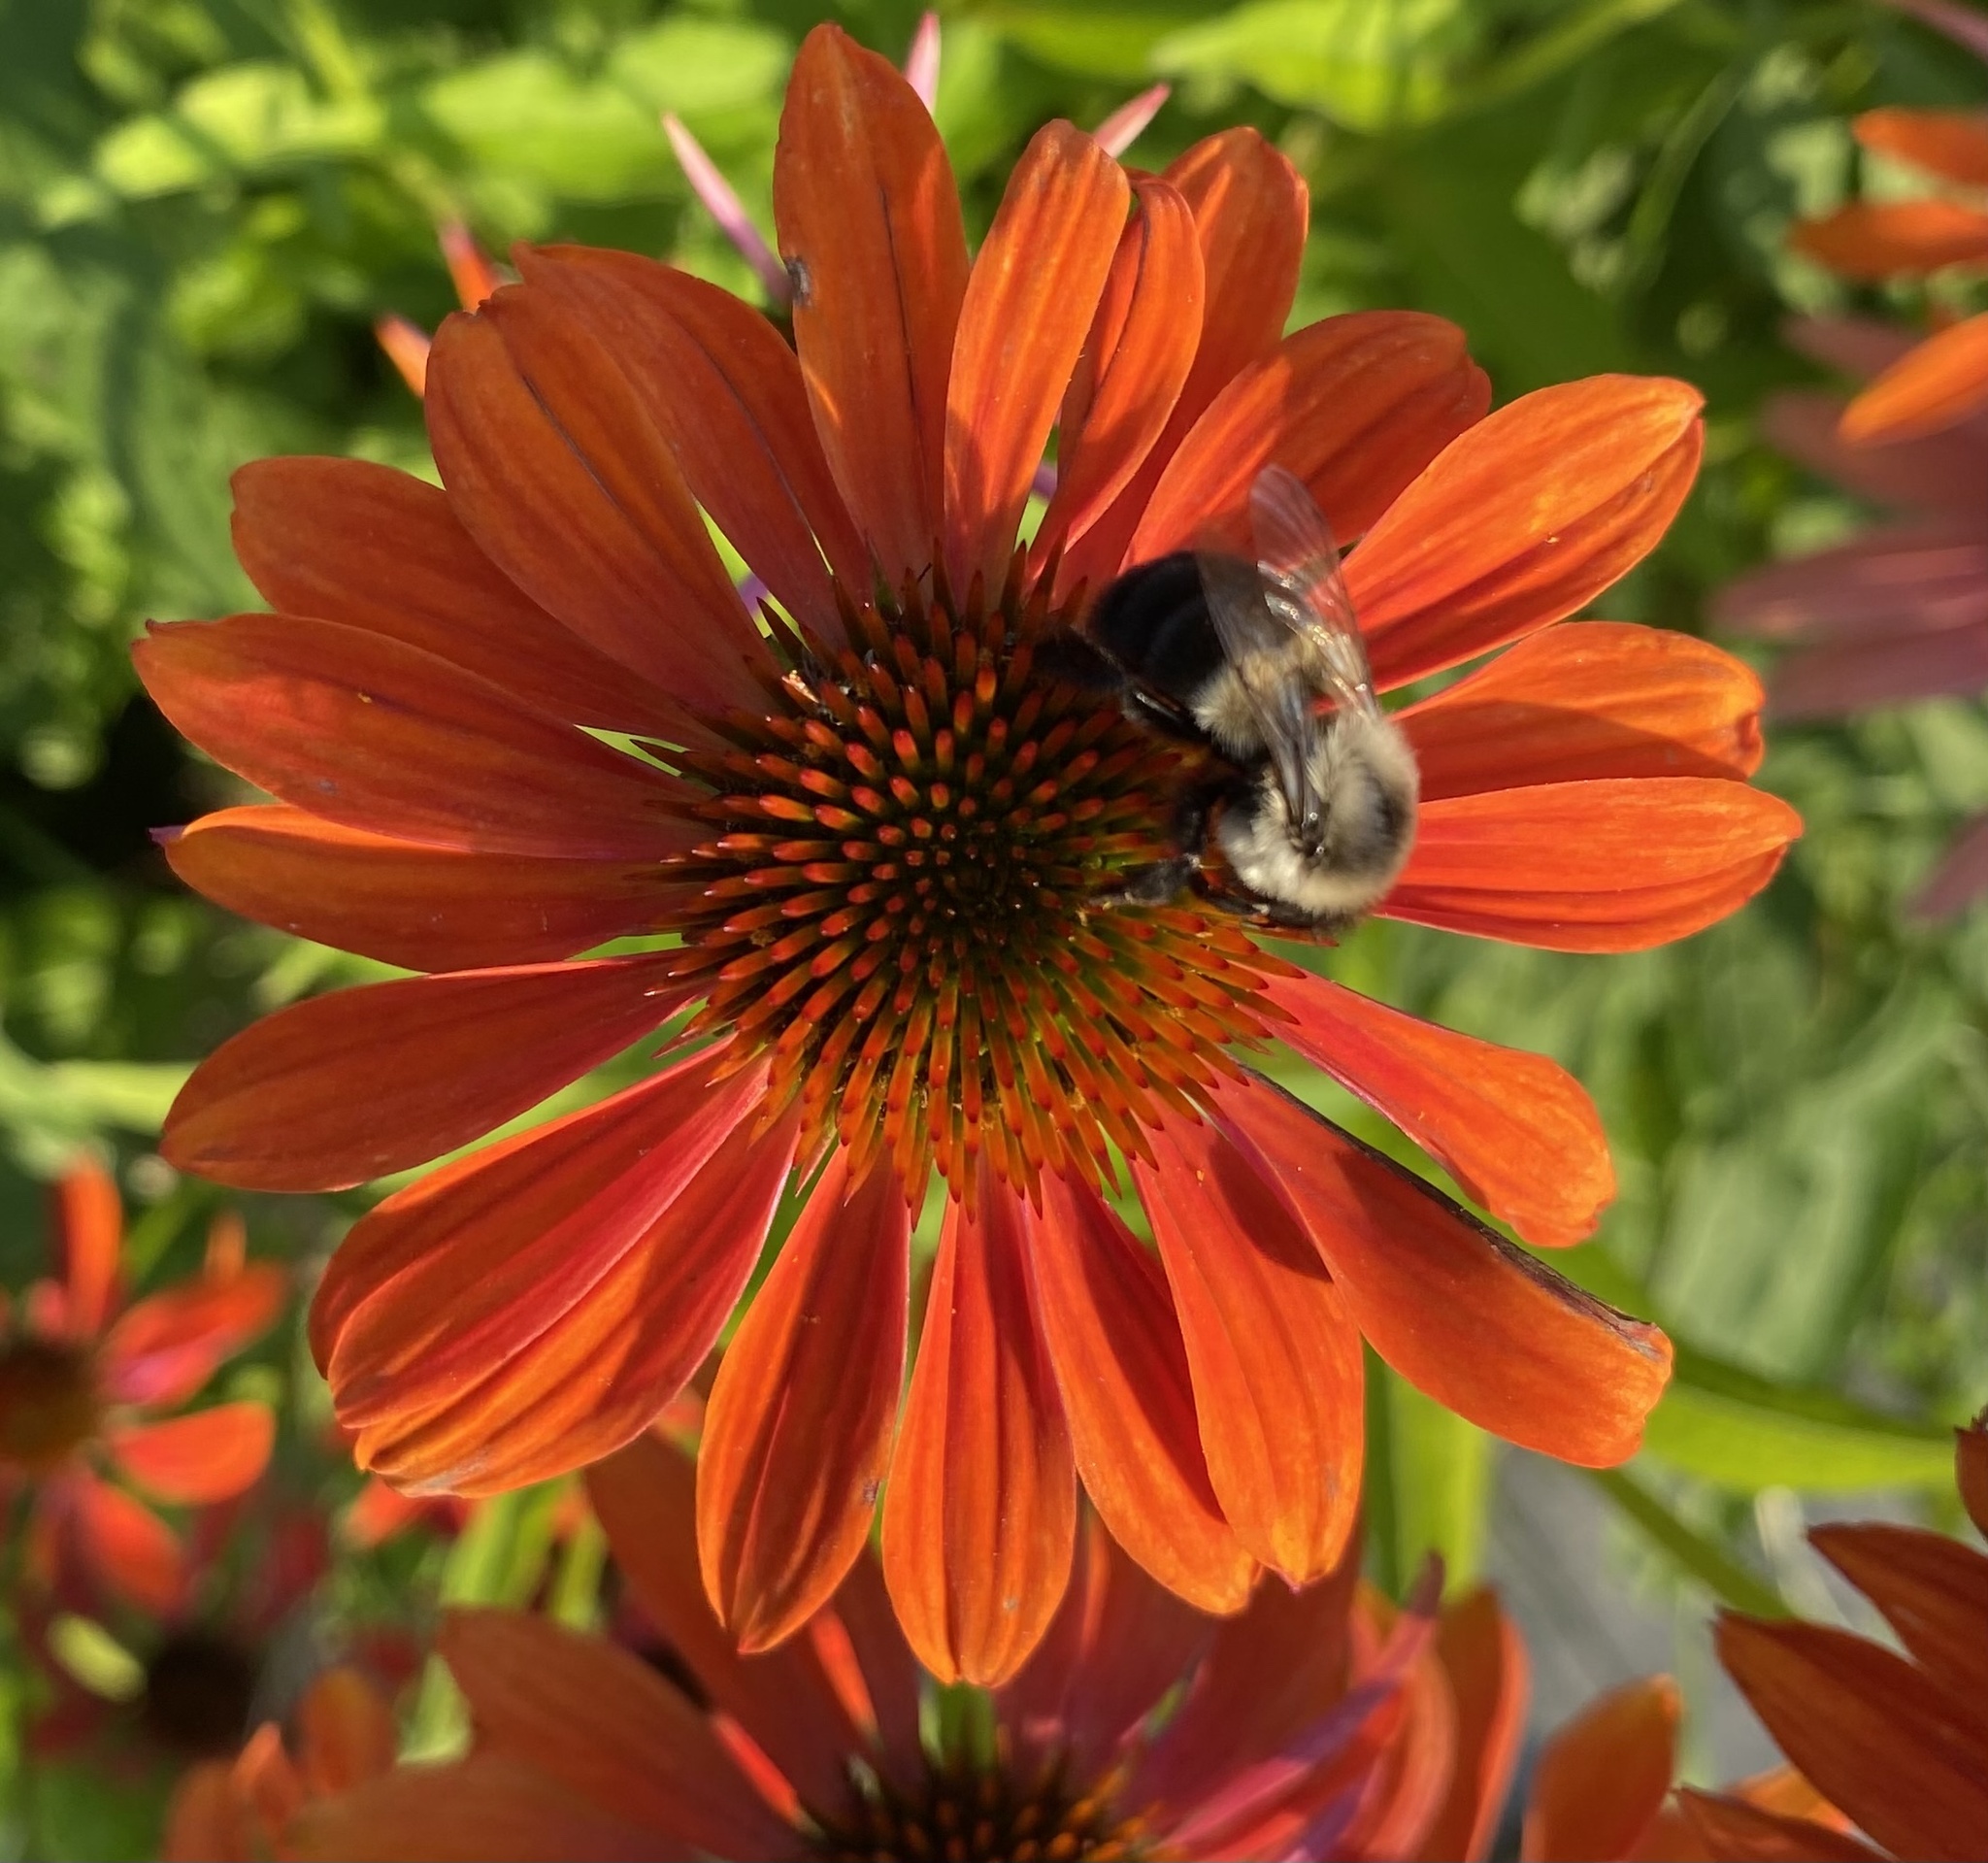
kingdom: Animalia
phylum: Arthropoda
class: Insecta
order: Hymenoptera
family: Apidae
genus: Bombus
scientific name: Bombus impatiens
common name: Common eastern bumble bee
